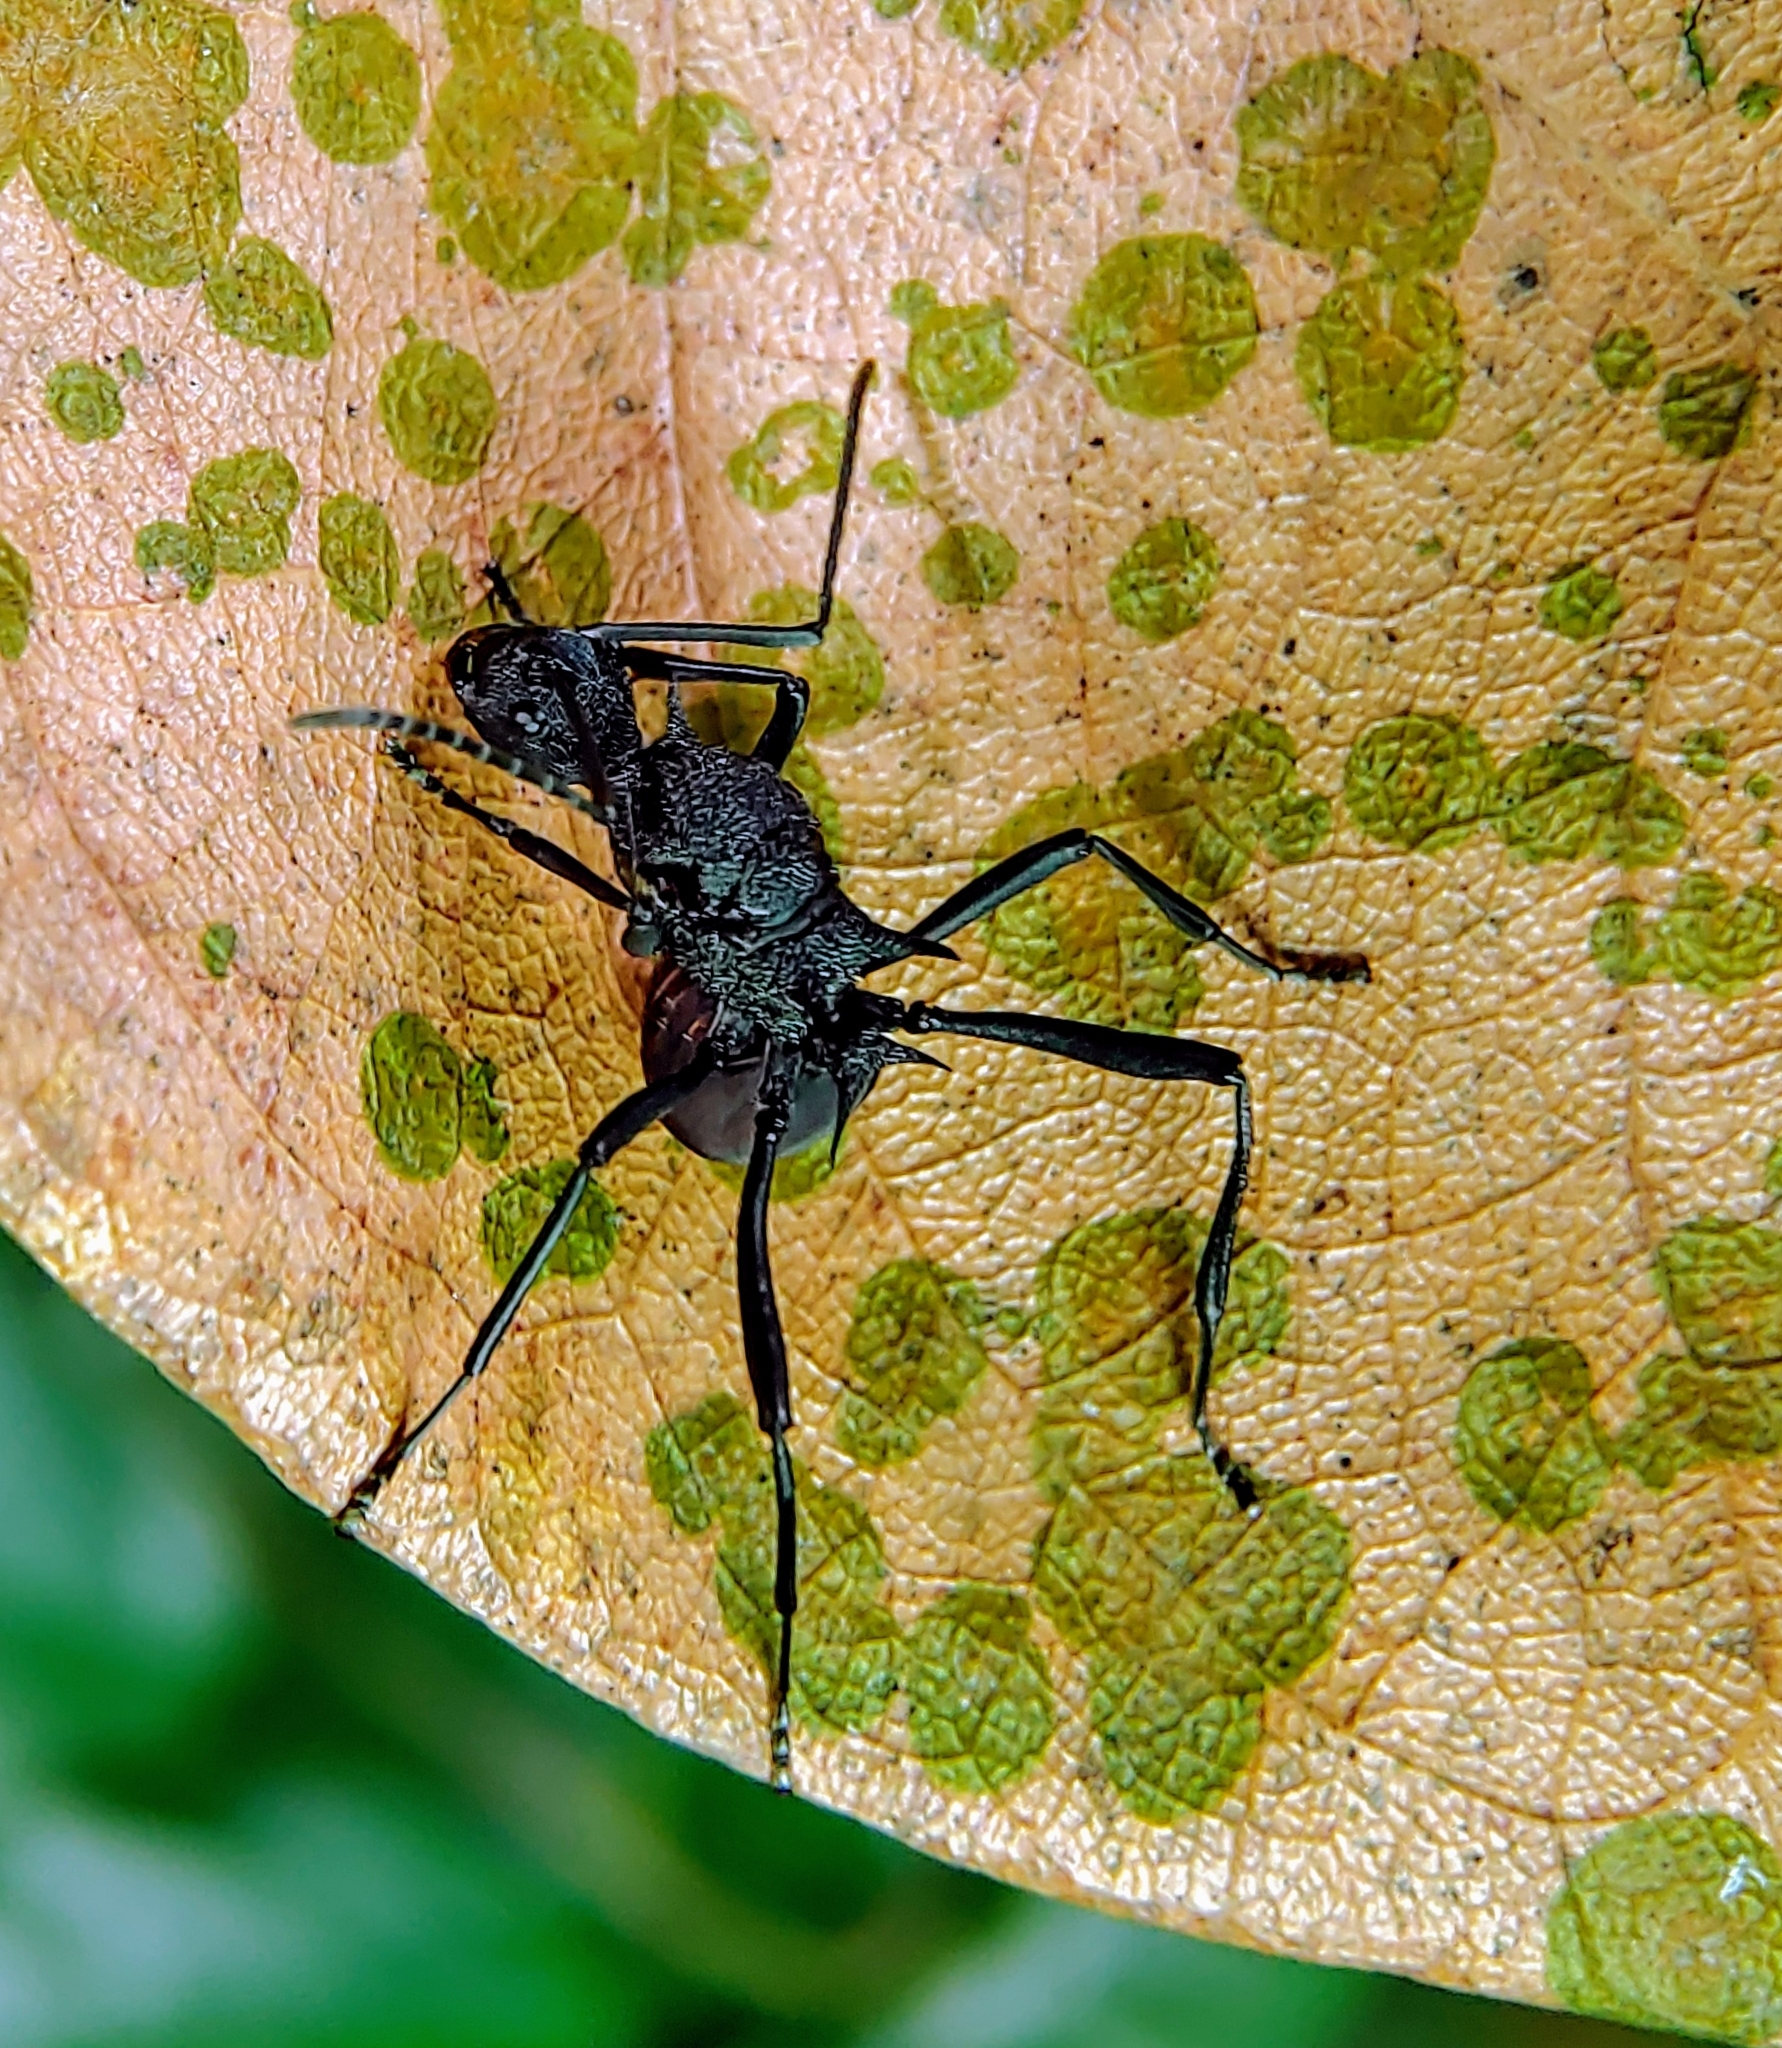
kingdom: Animalia
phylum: Arthropoda
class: Insecta
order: Hymenoptera
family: Formicidae
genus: Polyrhachis
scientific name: Polyrhachis armata
